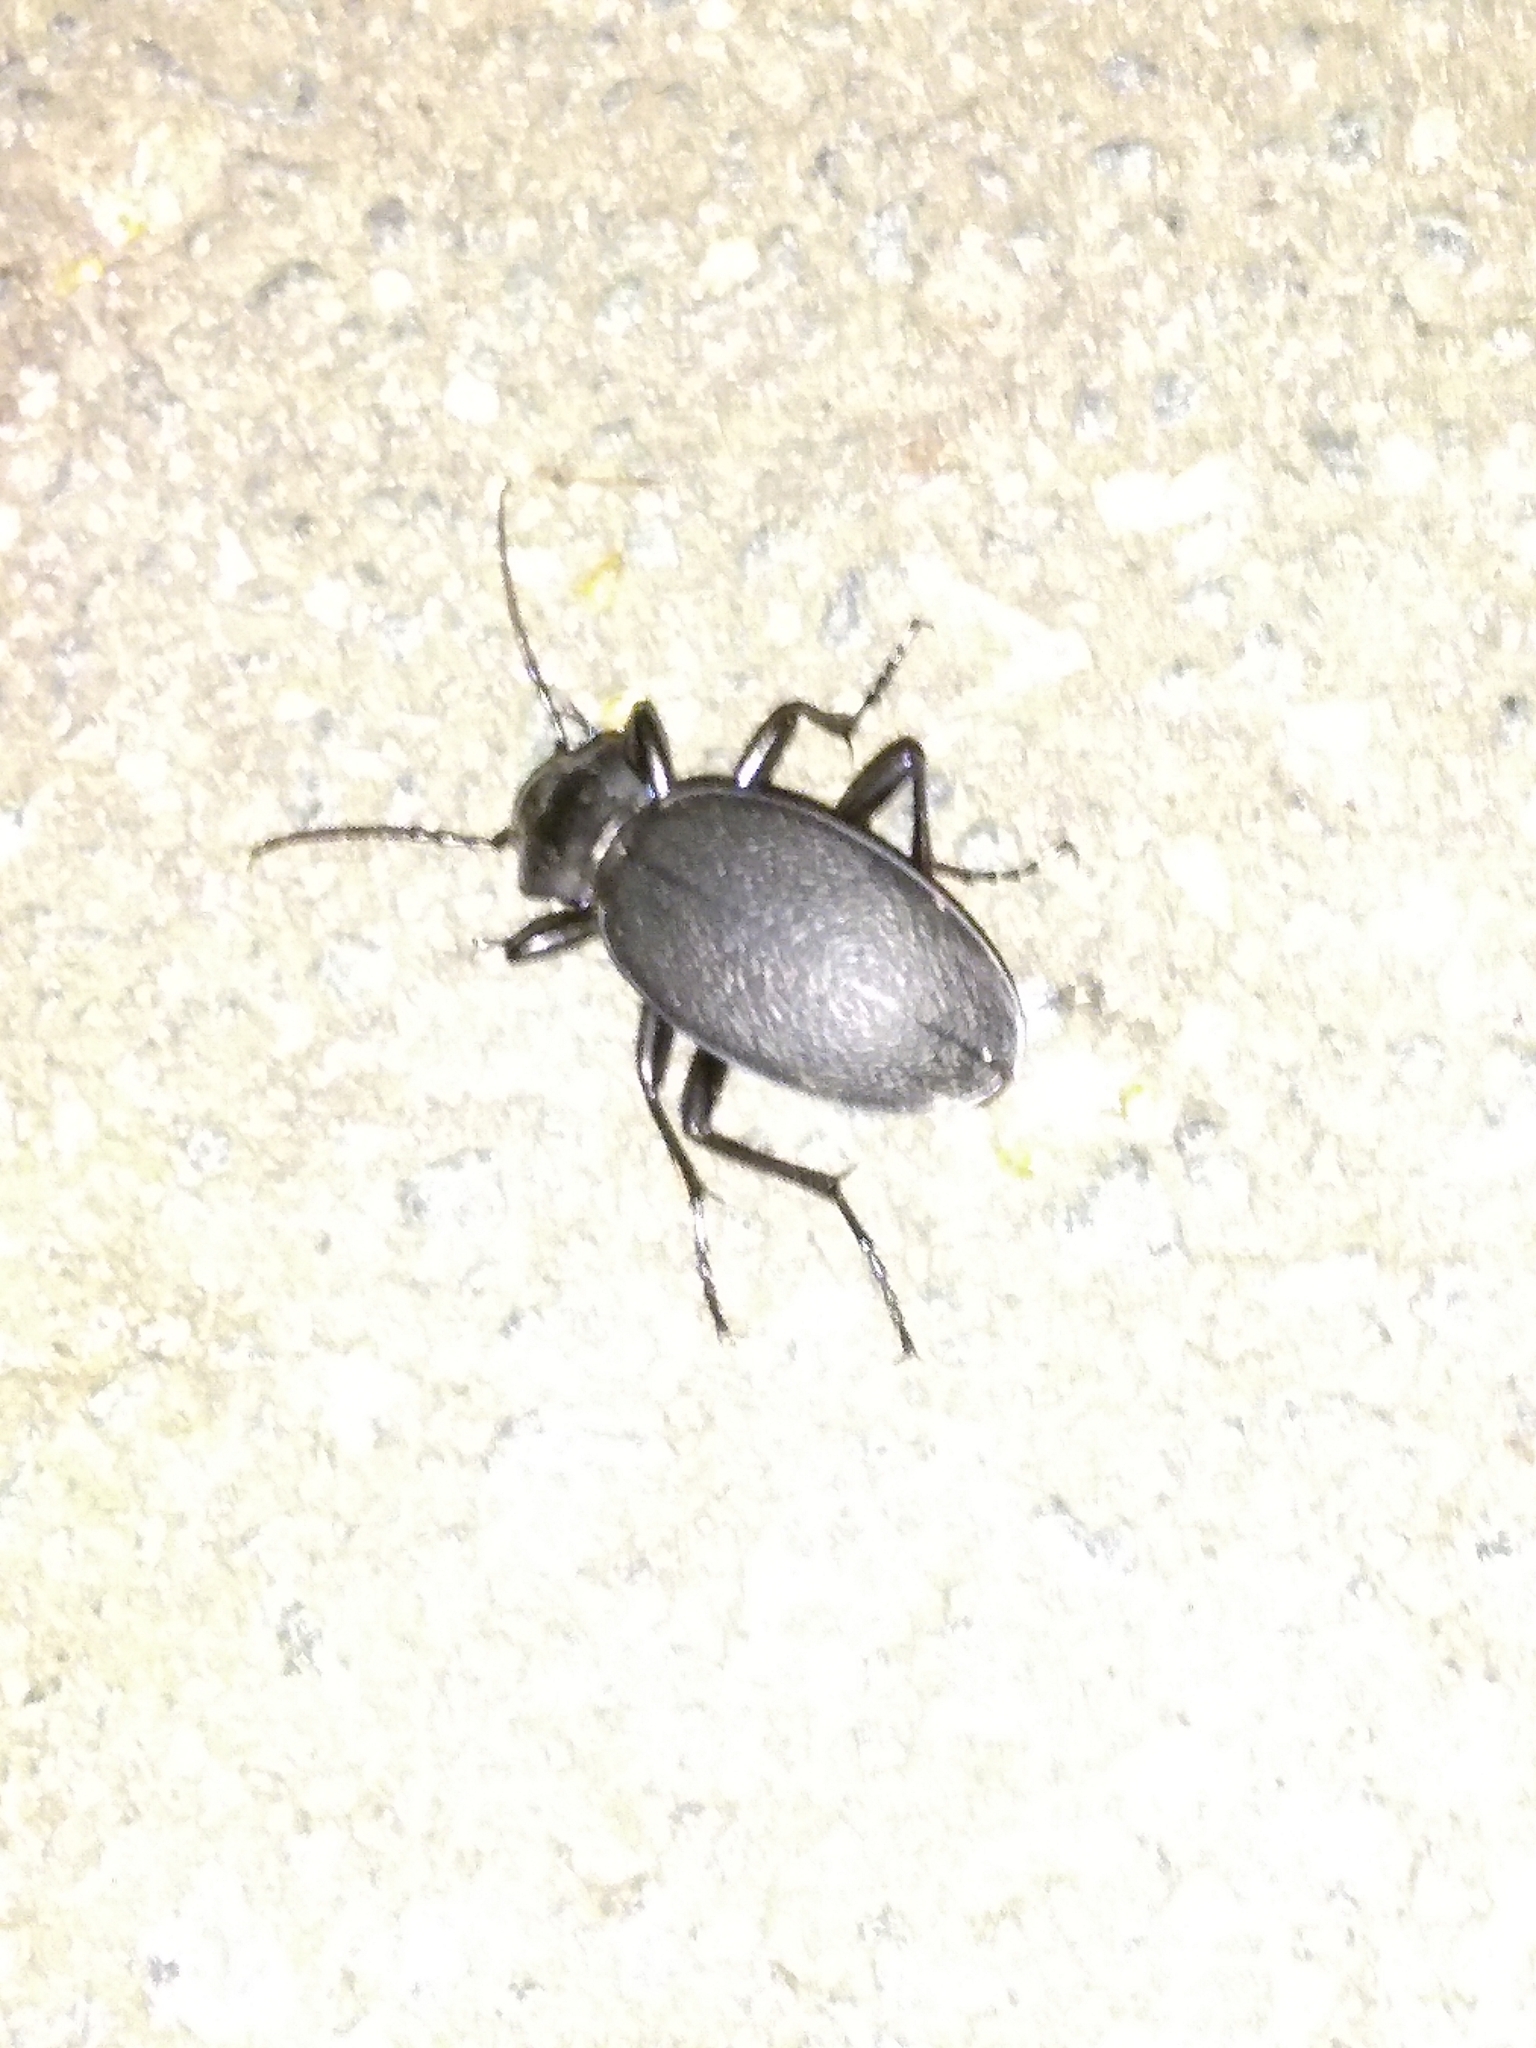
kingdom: Animalia
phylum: Arthropoda
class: Insecta
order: Coleoptera
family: Carabidae
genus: Carabus
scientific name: Carabus coriaceus
